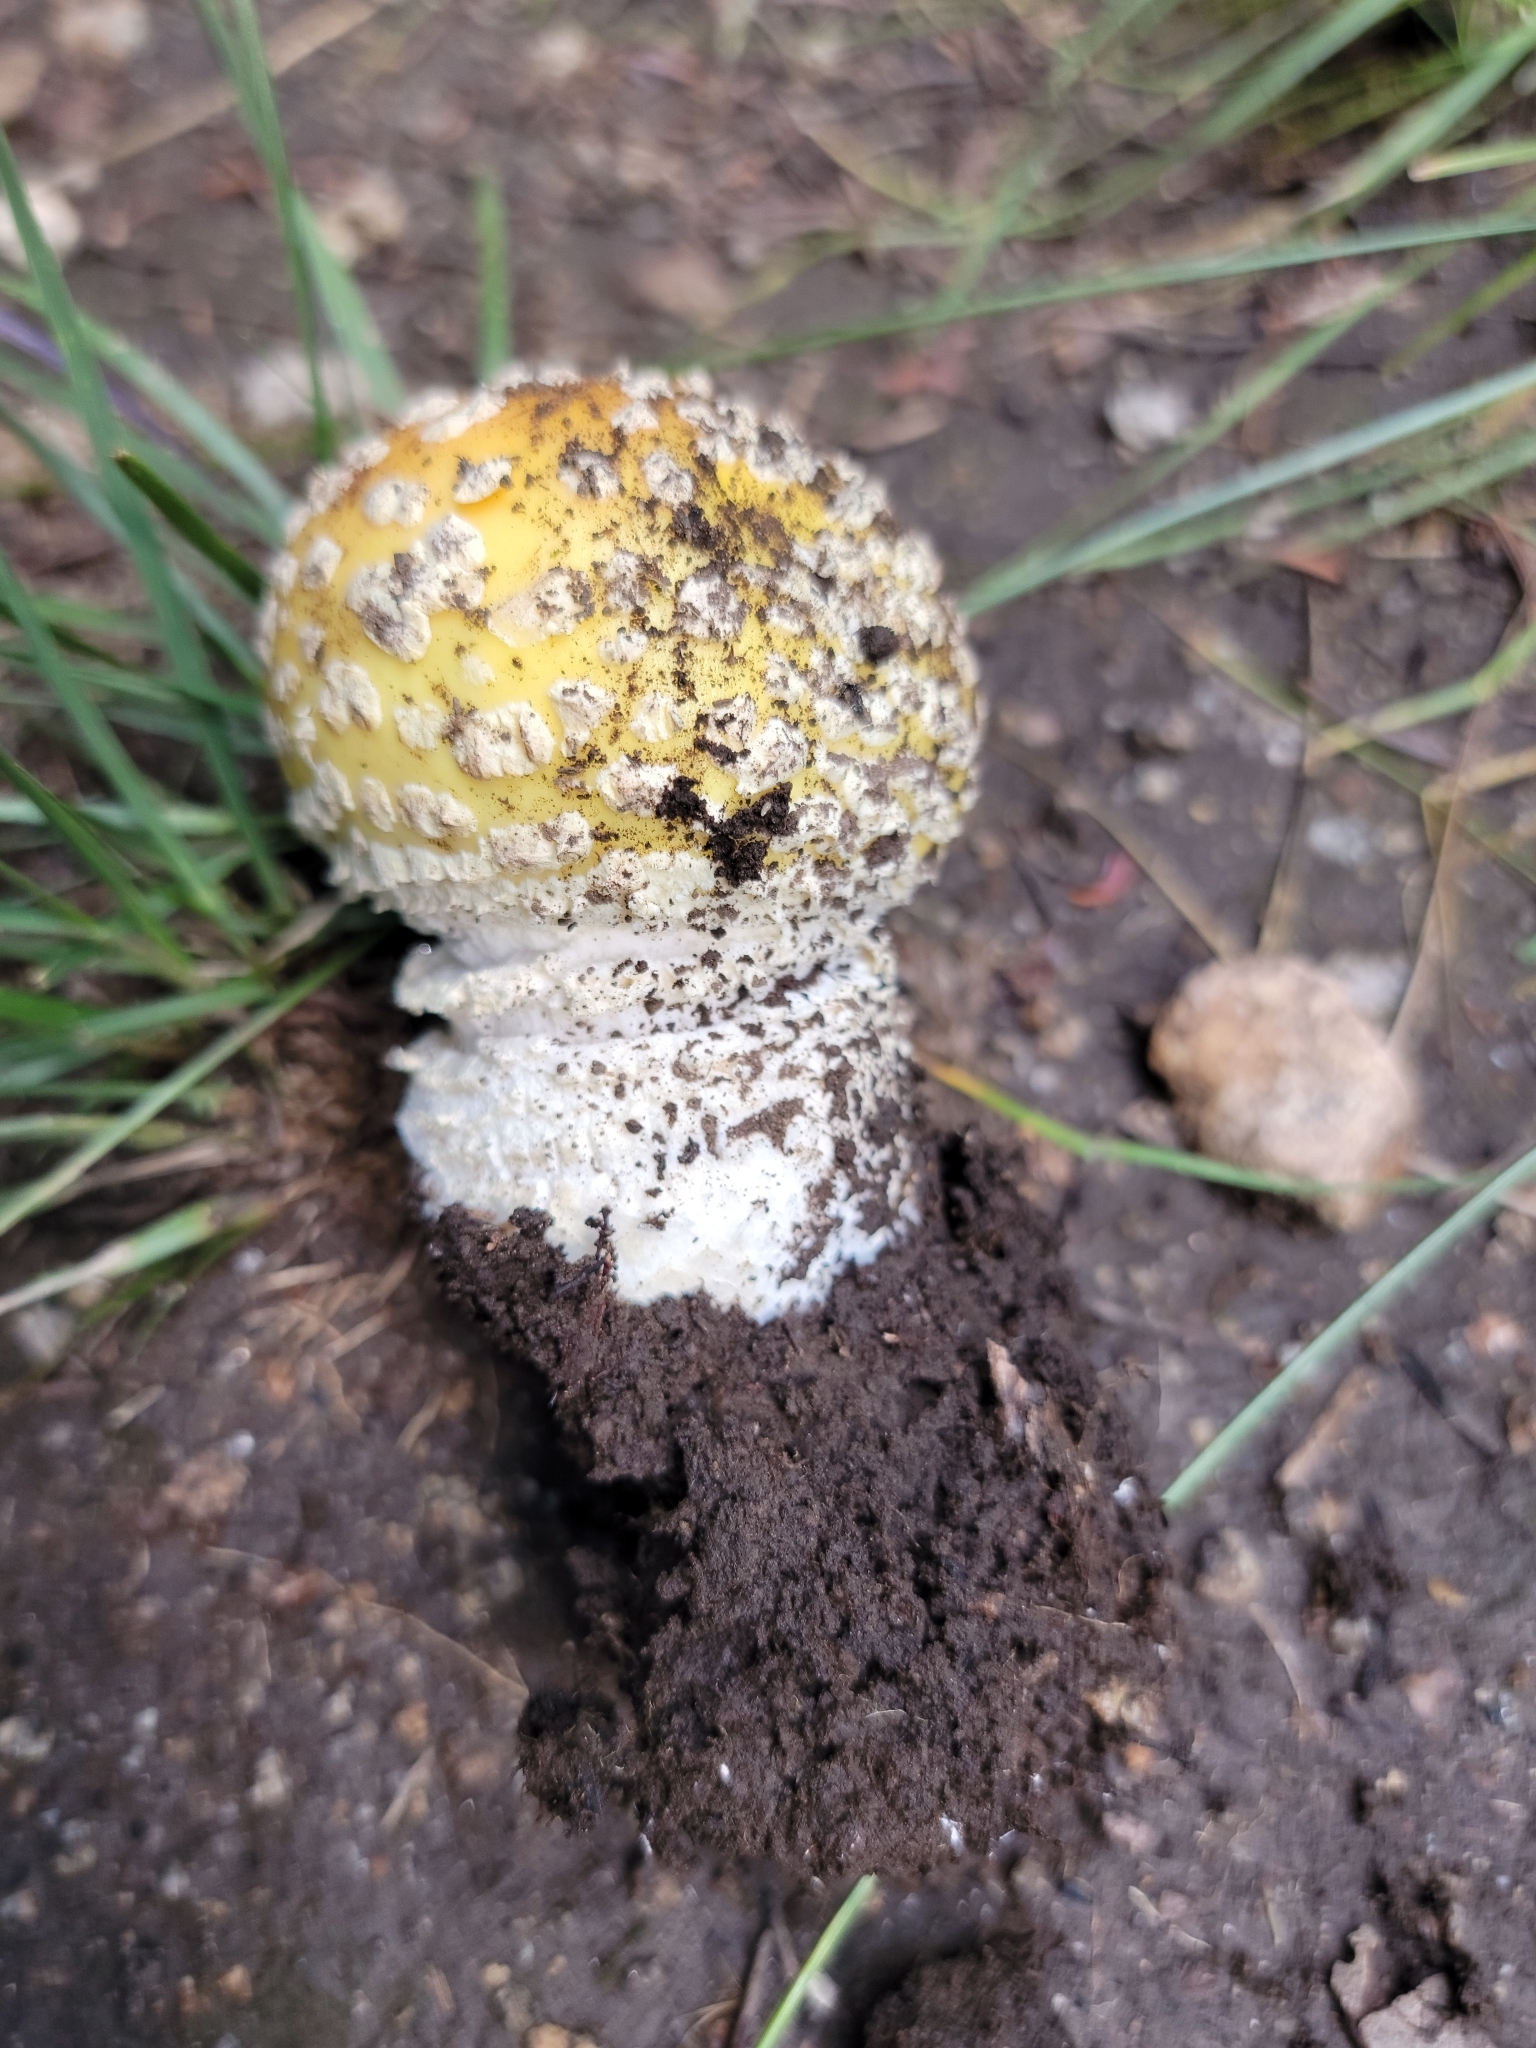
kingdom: Fungi
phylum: Basidiomycota
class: Agaricomycetes
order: Agaricales
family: Amanitaceae
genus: Amanita
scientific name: Amanita muscaria
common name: Fly agaric
